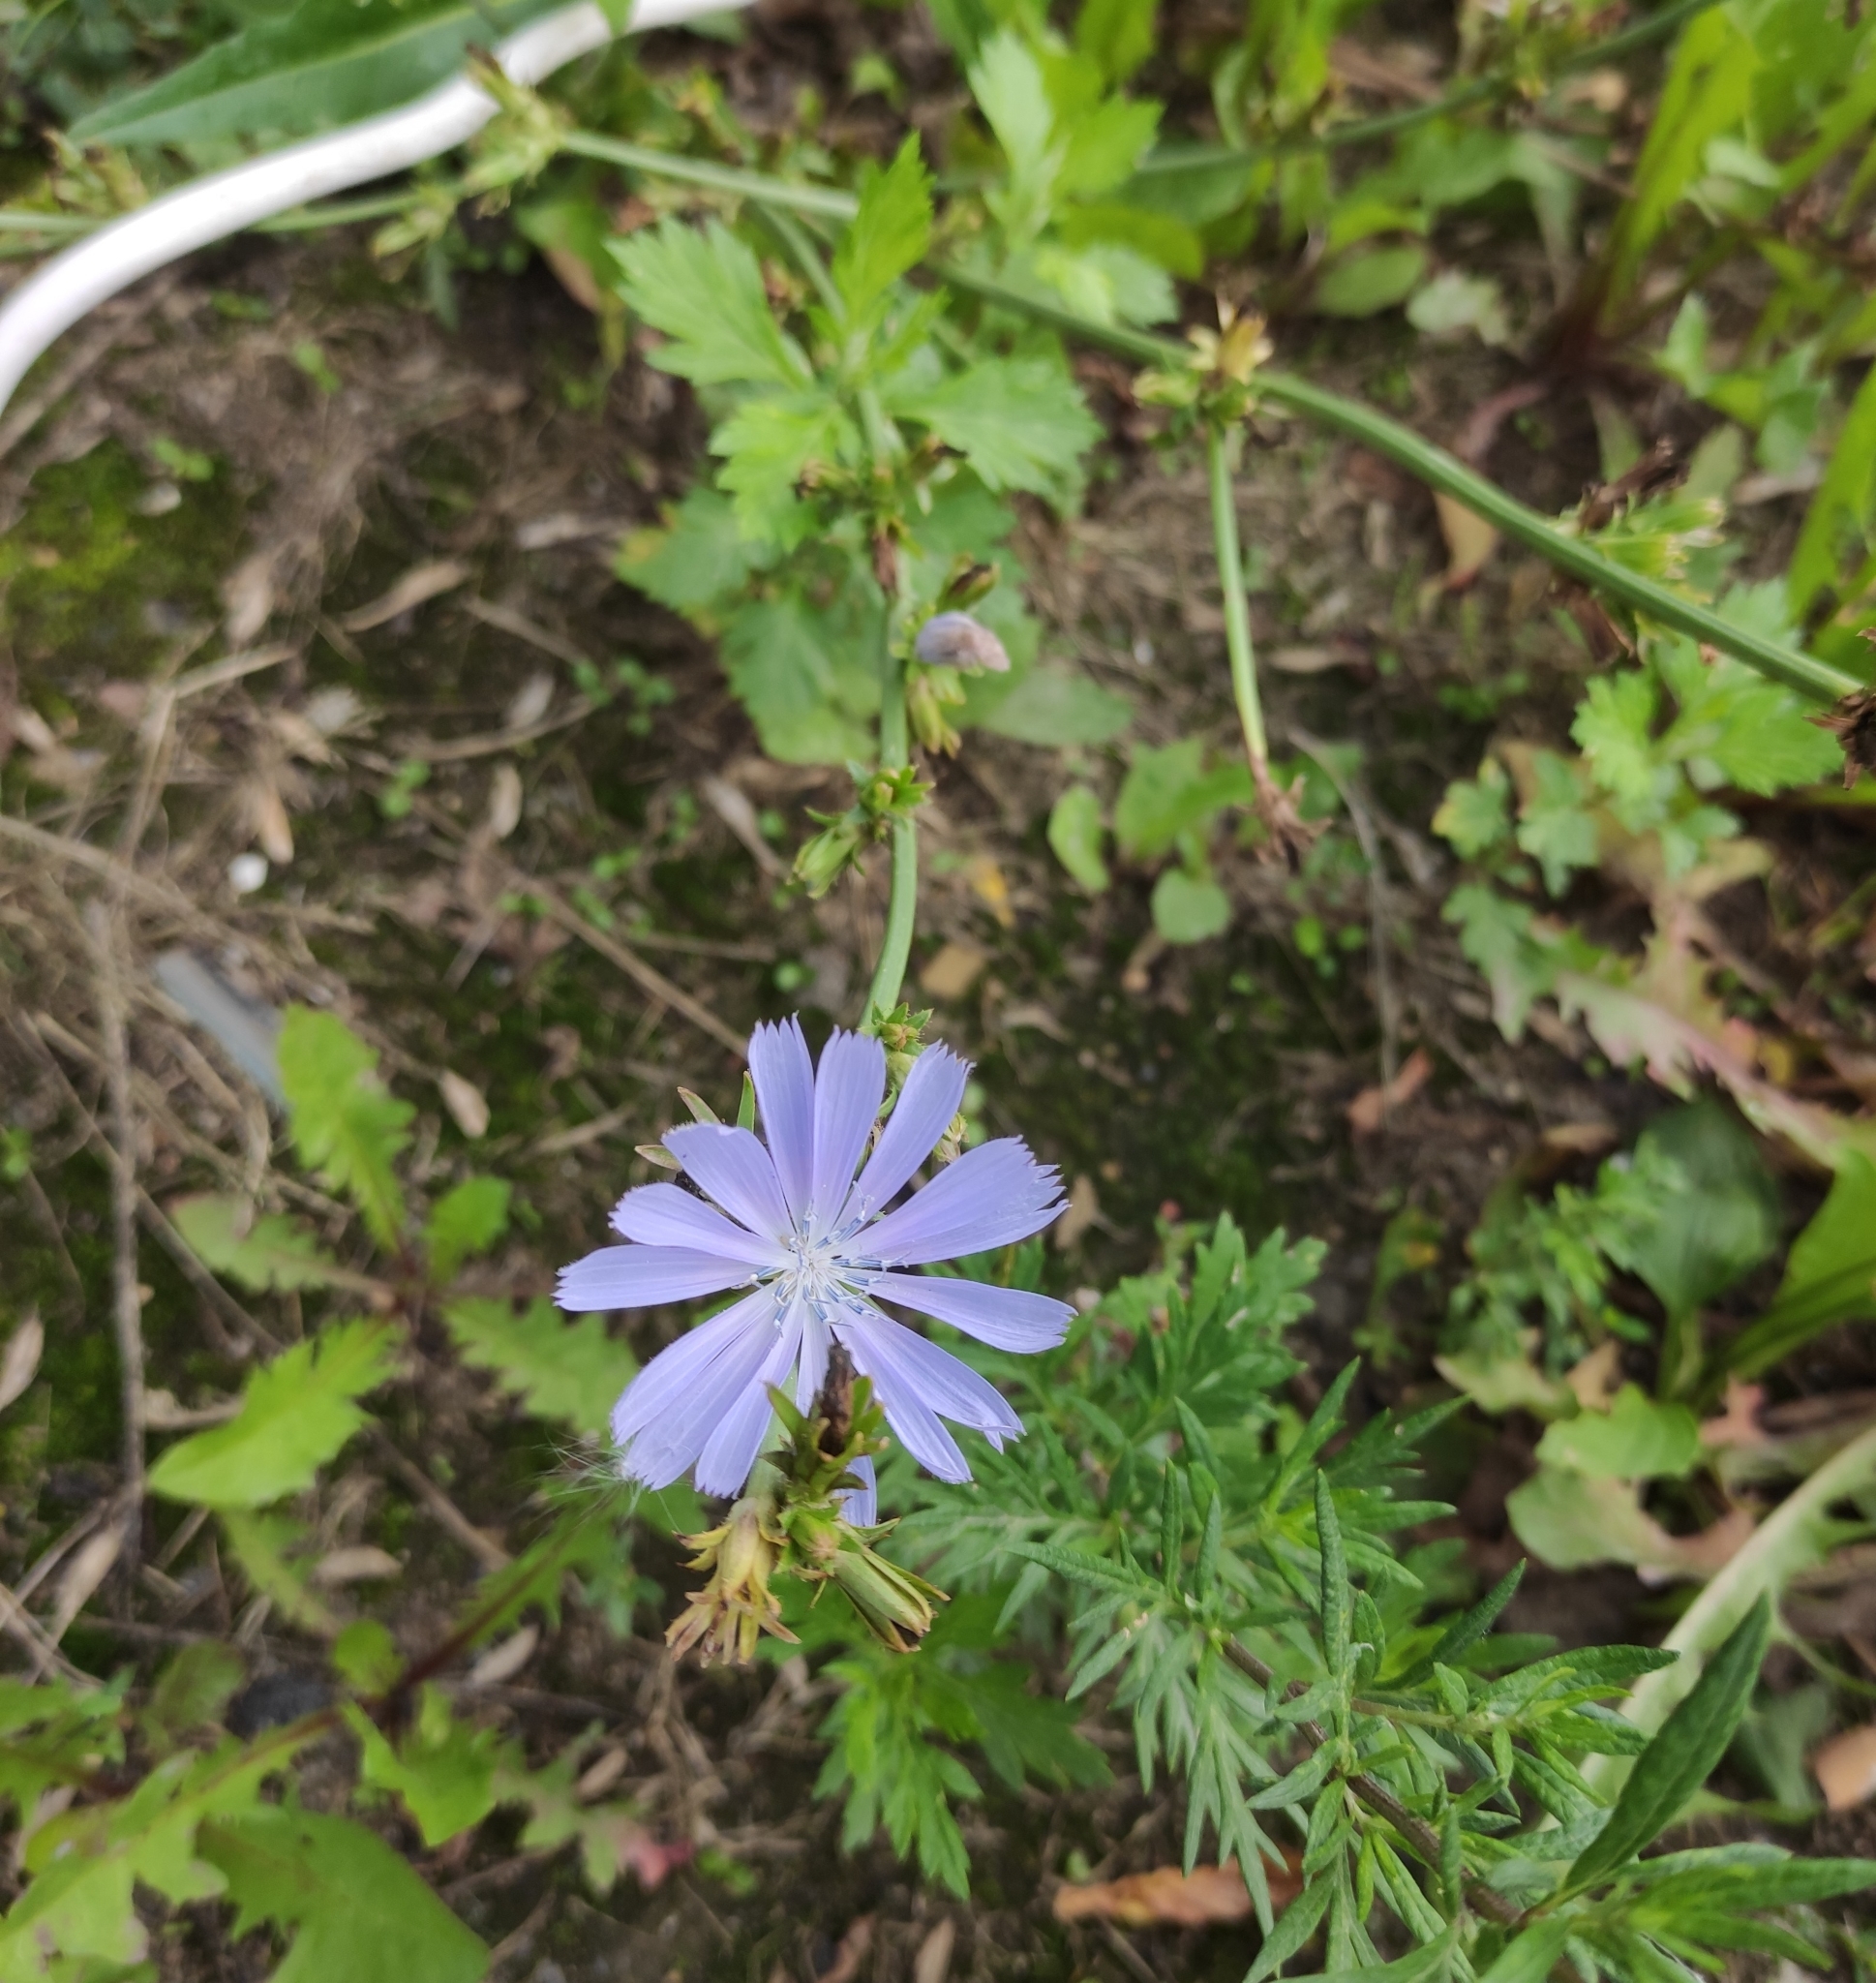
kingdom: Plantae
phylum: Tracheophyta
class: Magnoliopsida
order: Asterales
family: Asteraceae
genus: Cichorium
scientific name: Cichorium intybus
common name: Chicory
